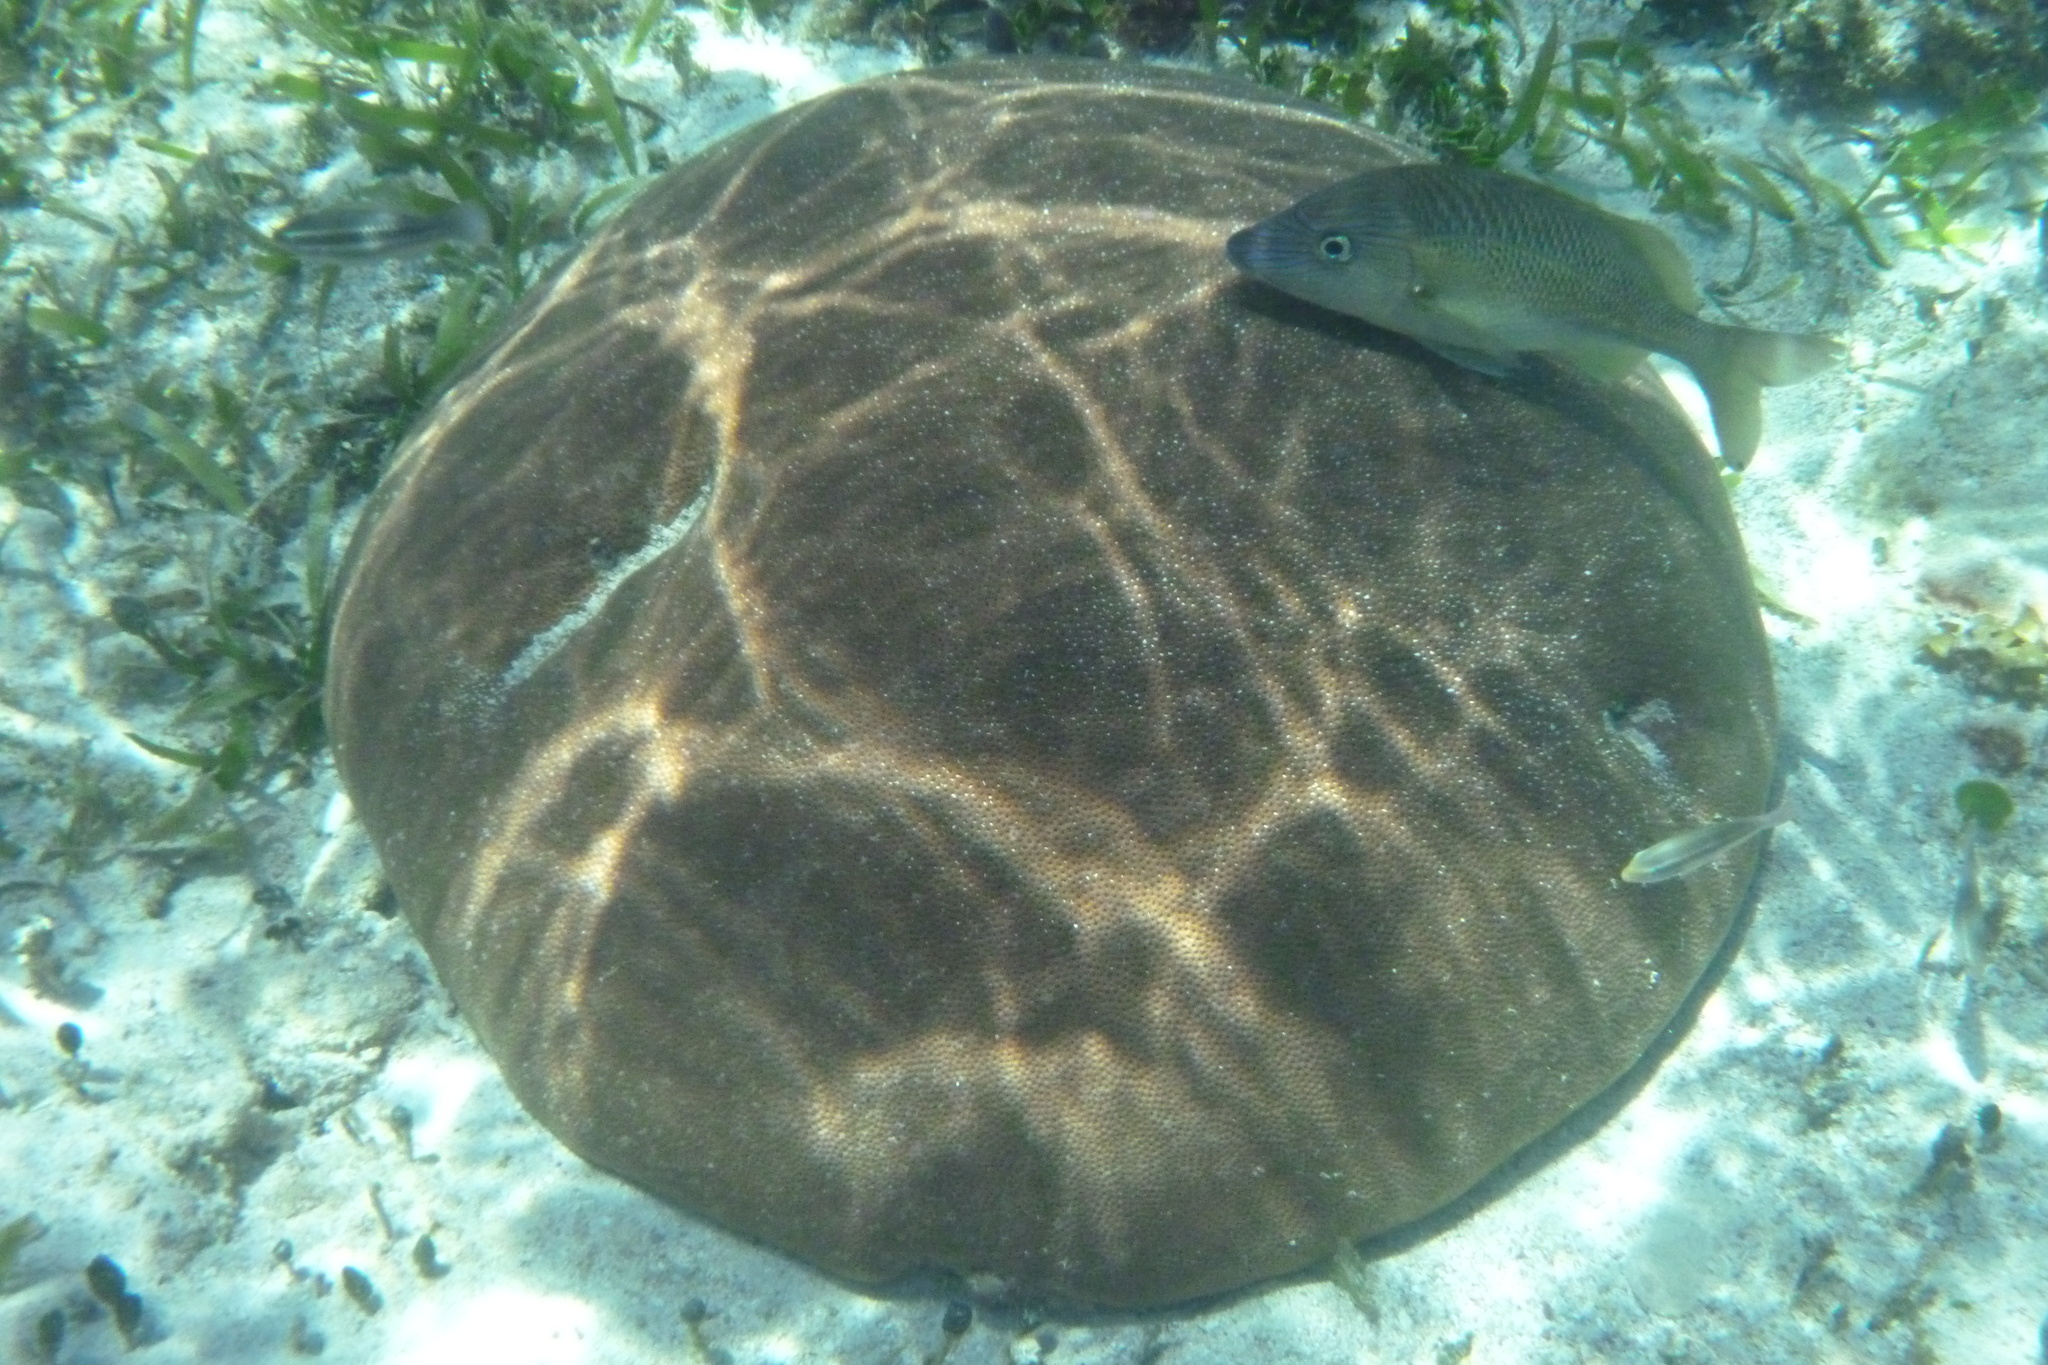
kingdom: Animalia
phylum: Cnidaria
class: Anthozoa
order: Scleractinia
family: Rhizangiidae
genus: Siderastrea
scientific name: Siderastrea siderea
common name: Massive starlet coral
